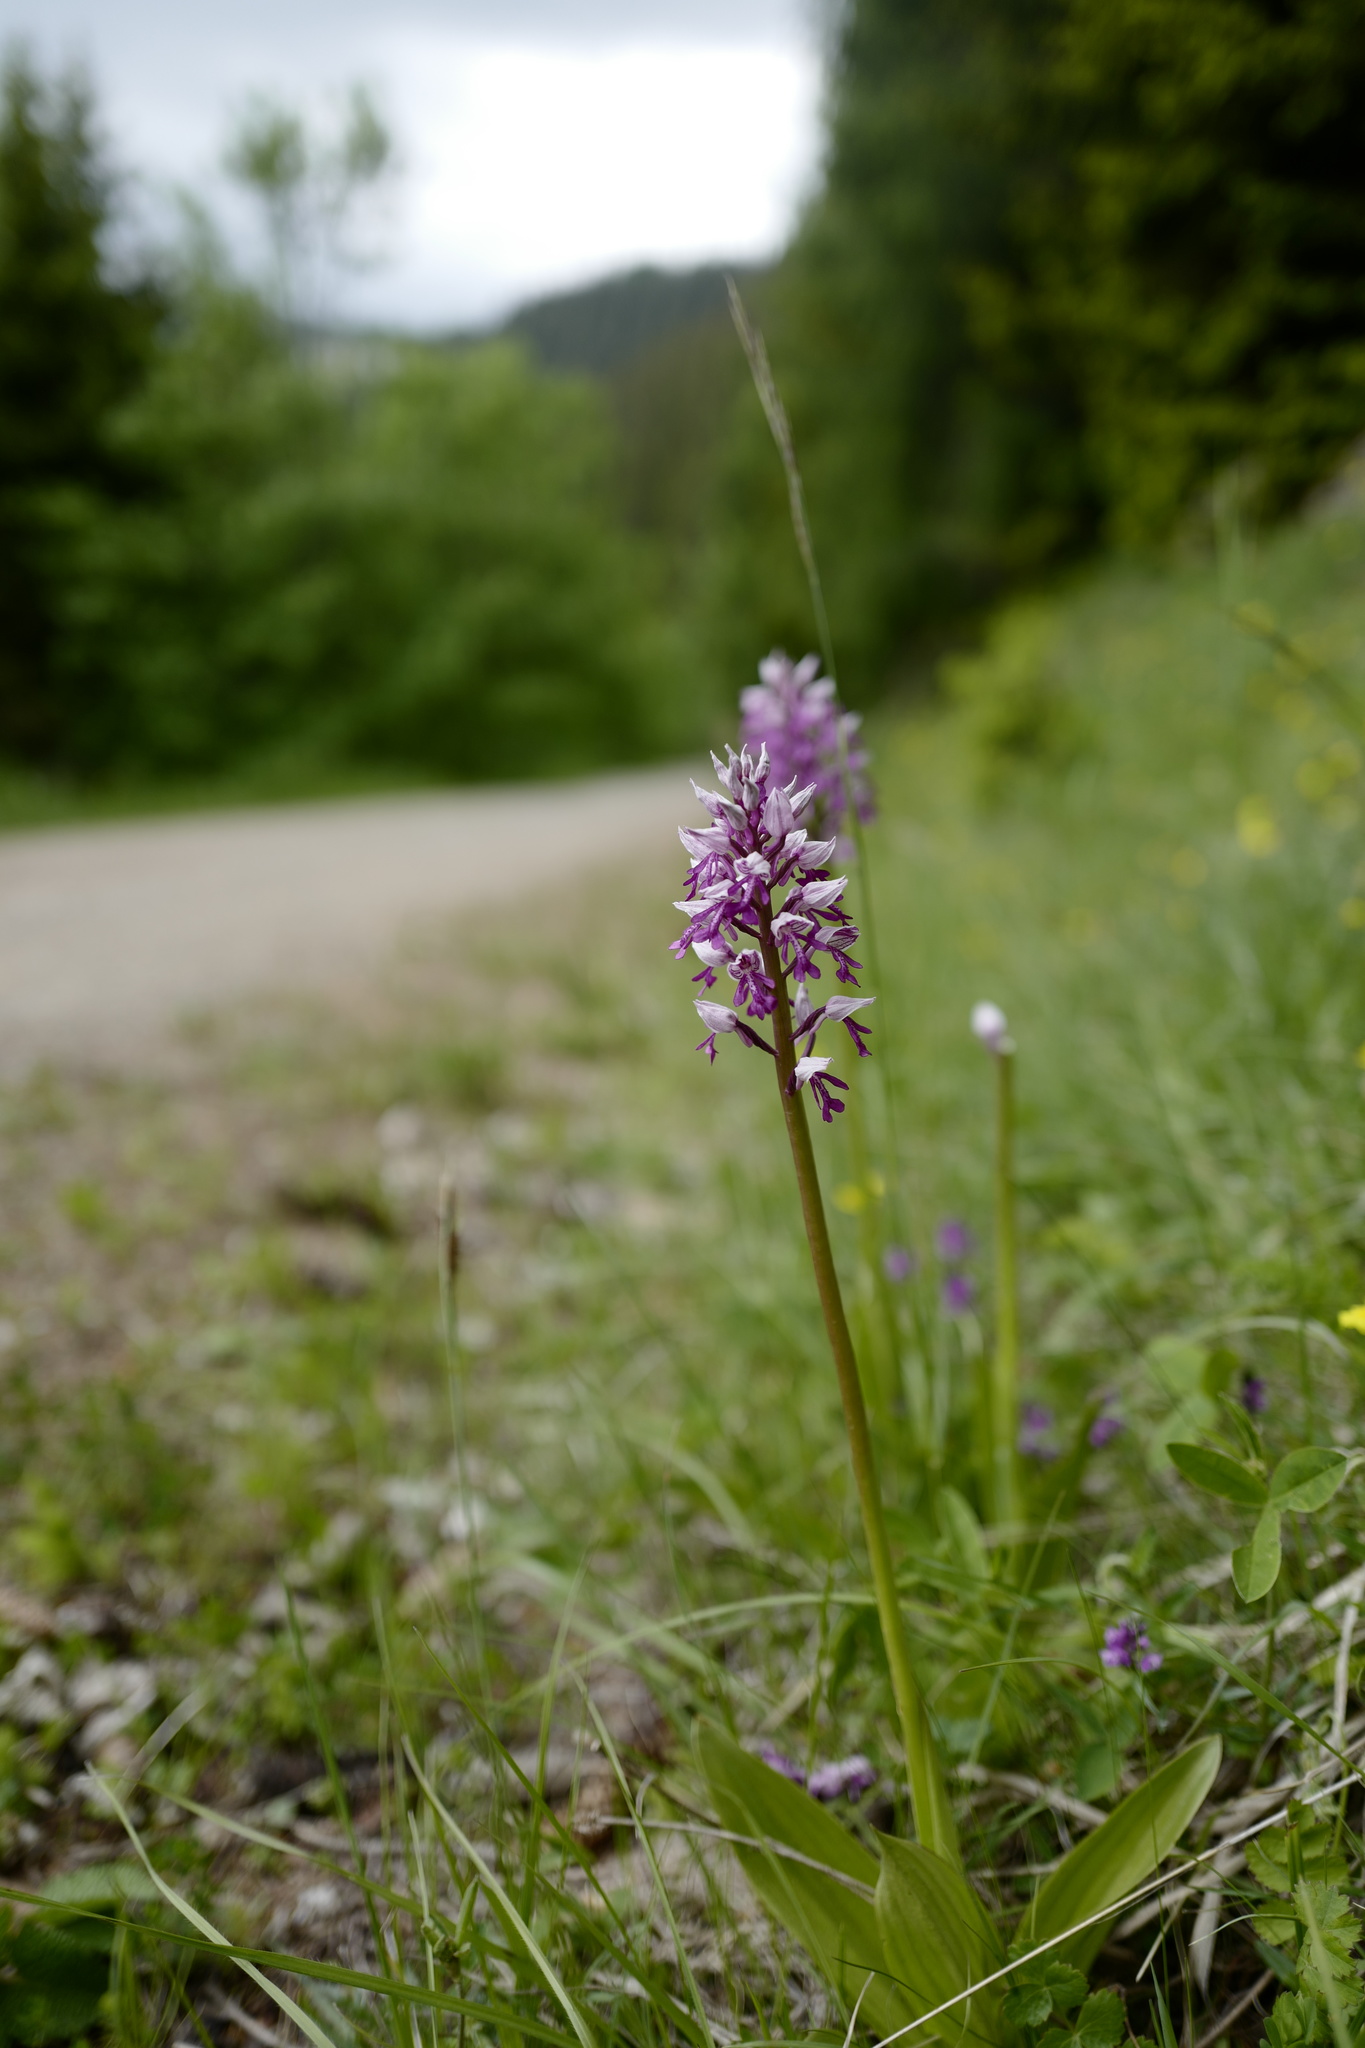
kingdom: Plantae
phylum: Tracheophyta
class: Liliopsida
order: Asparagales
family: Orchidaceae
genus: Orchis
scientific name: Orchis militaris
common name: Military orchid
